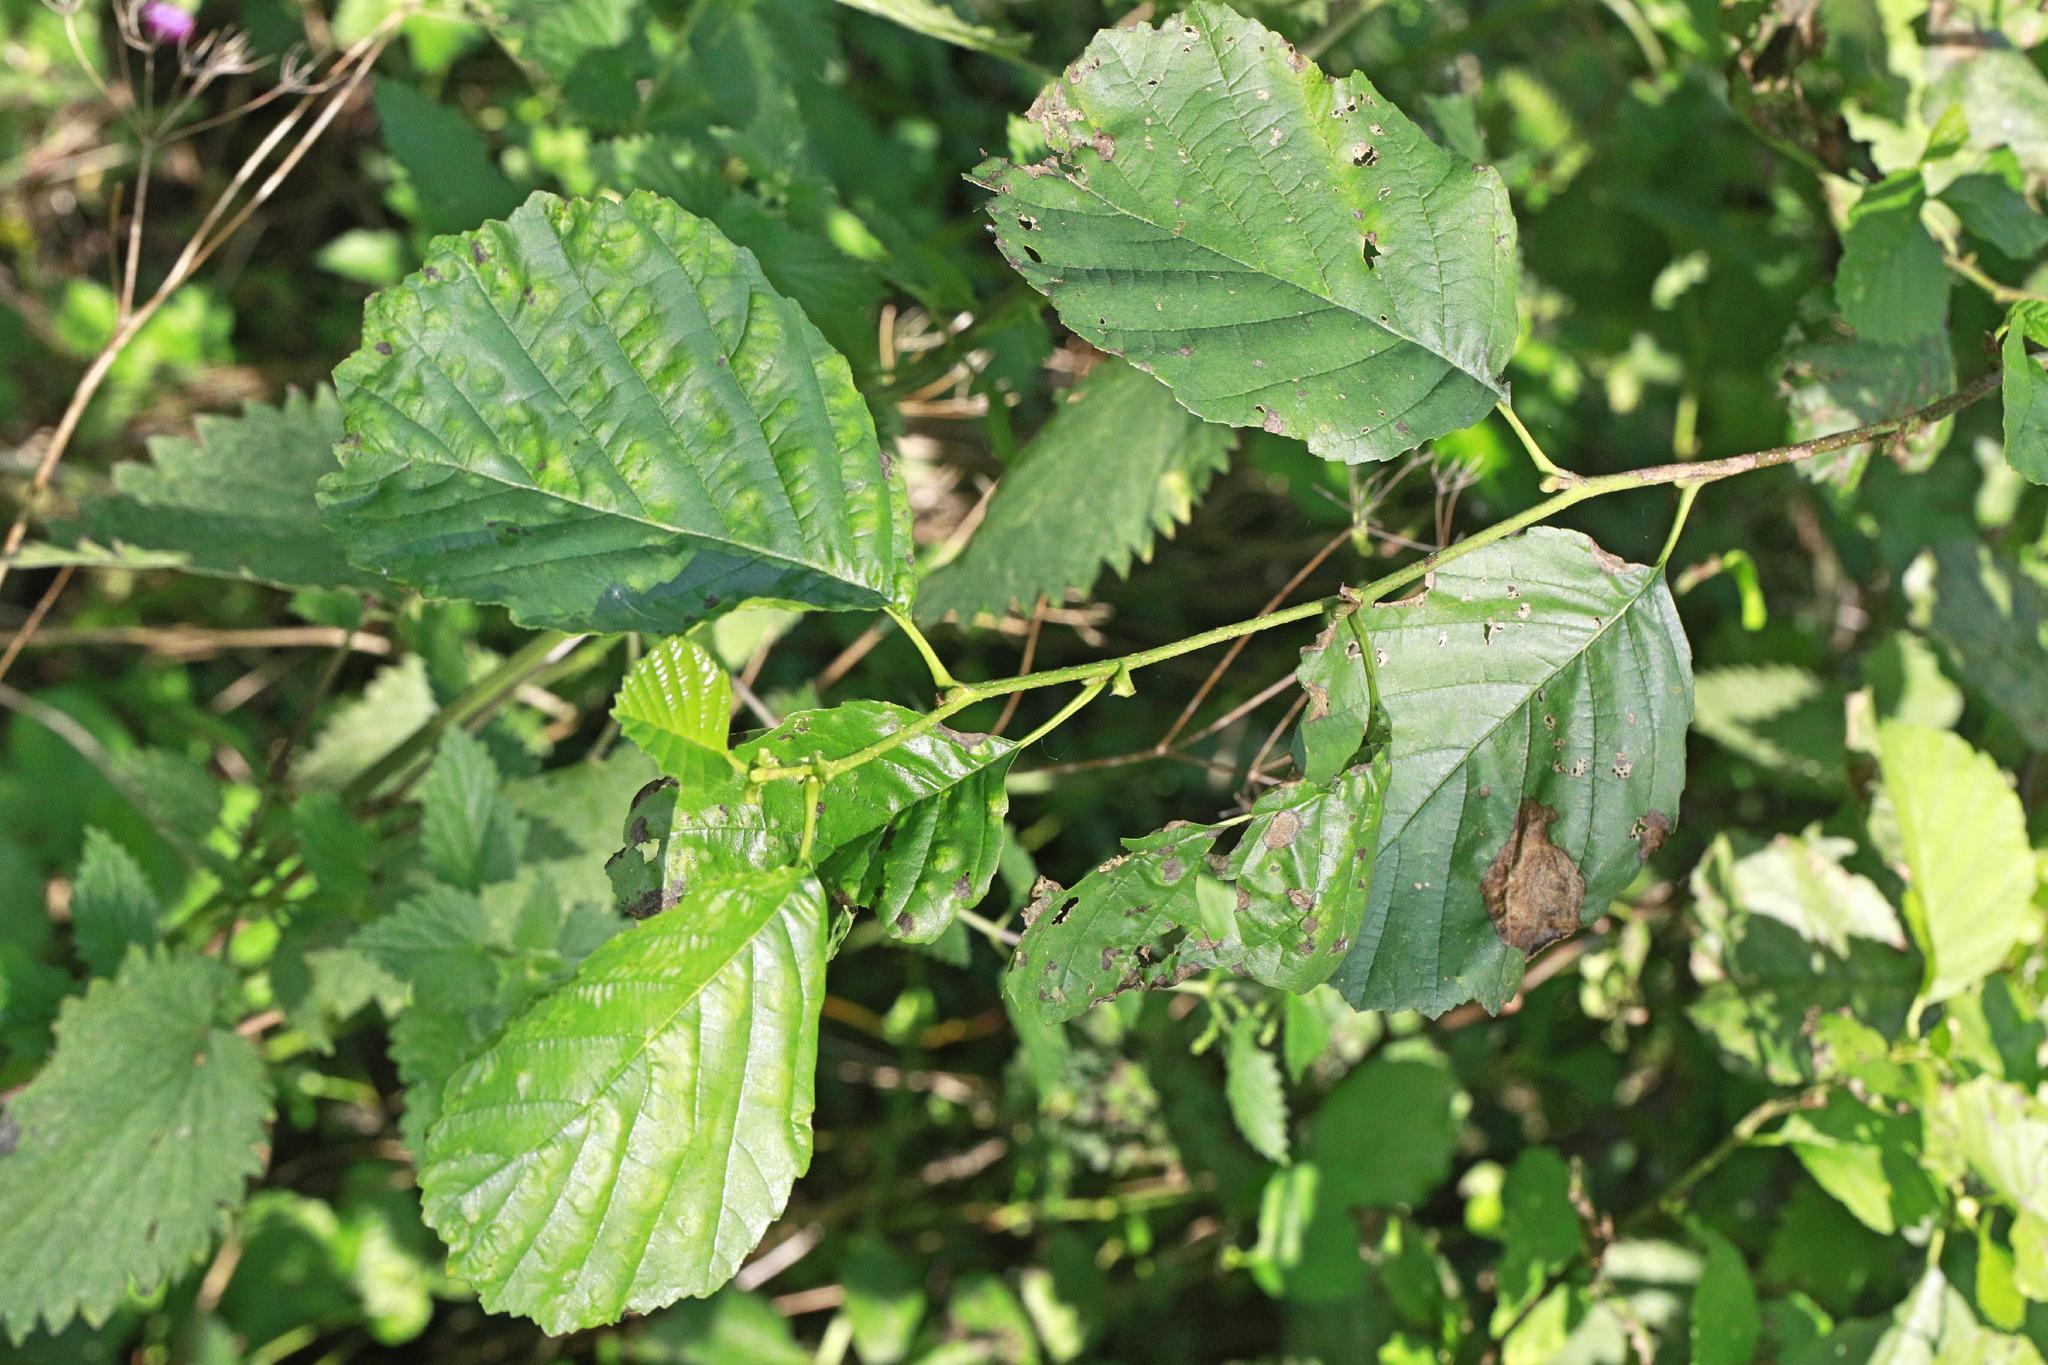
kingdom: Plantae
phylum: Tracheophyta
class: Magnoliopsida
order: Fagales
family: Betulaceae
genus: Alnus
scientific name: Alnus glutinosa
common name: Black alder
